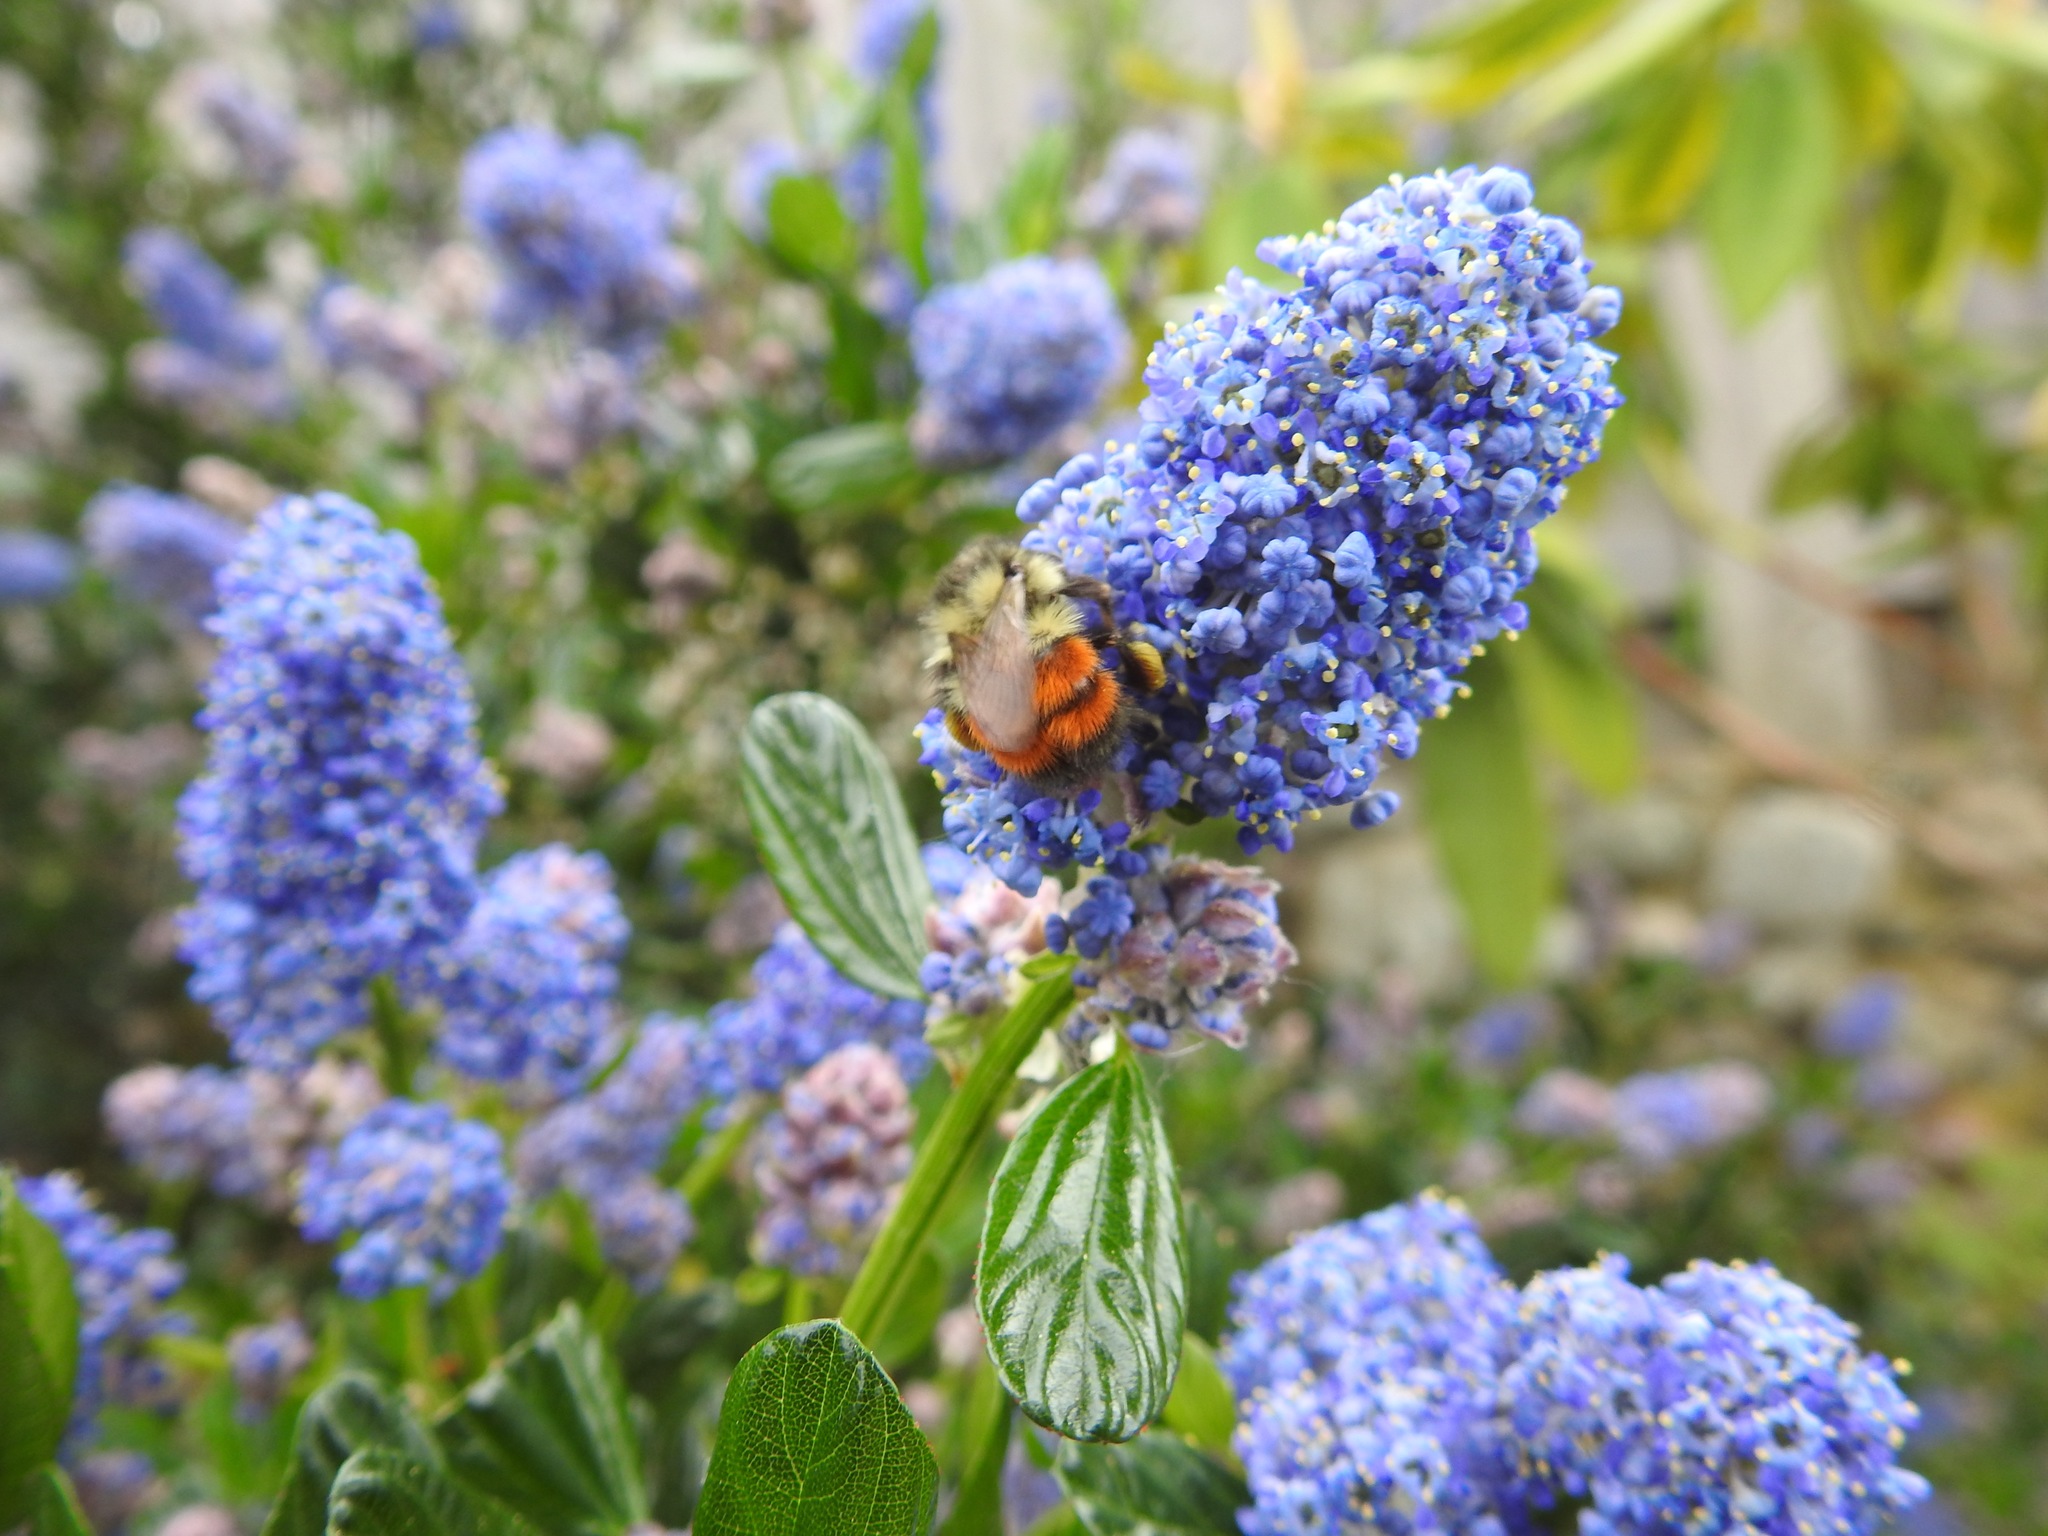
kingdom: Animalia
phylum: Arthropoda
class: Insecta
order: Hymenoptera
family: Apidae
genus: Bombus
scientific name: Bombus melanopygus
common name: Black tail bumble bee
